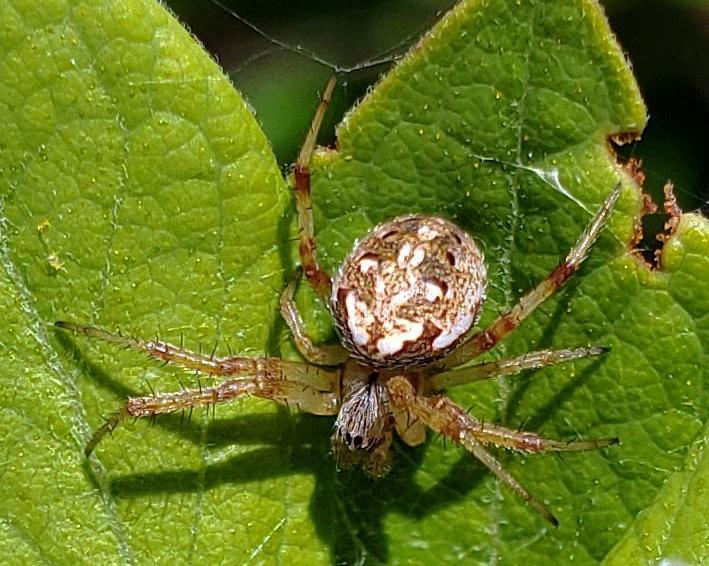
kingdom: Animalia
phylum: Arthropoda
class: Arachnida
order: Araneae
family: Araneidae
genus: Neoscona
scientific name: Neoscona arabesca
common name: Orb weavers
